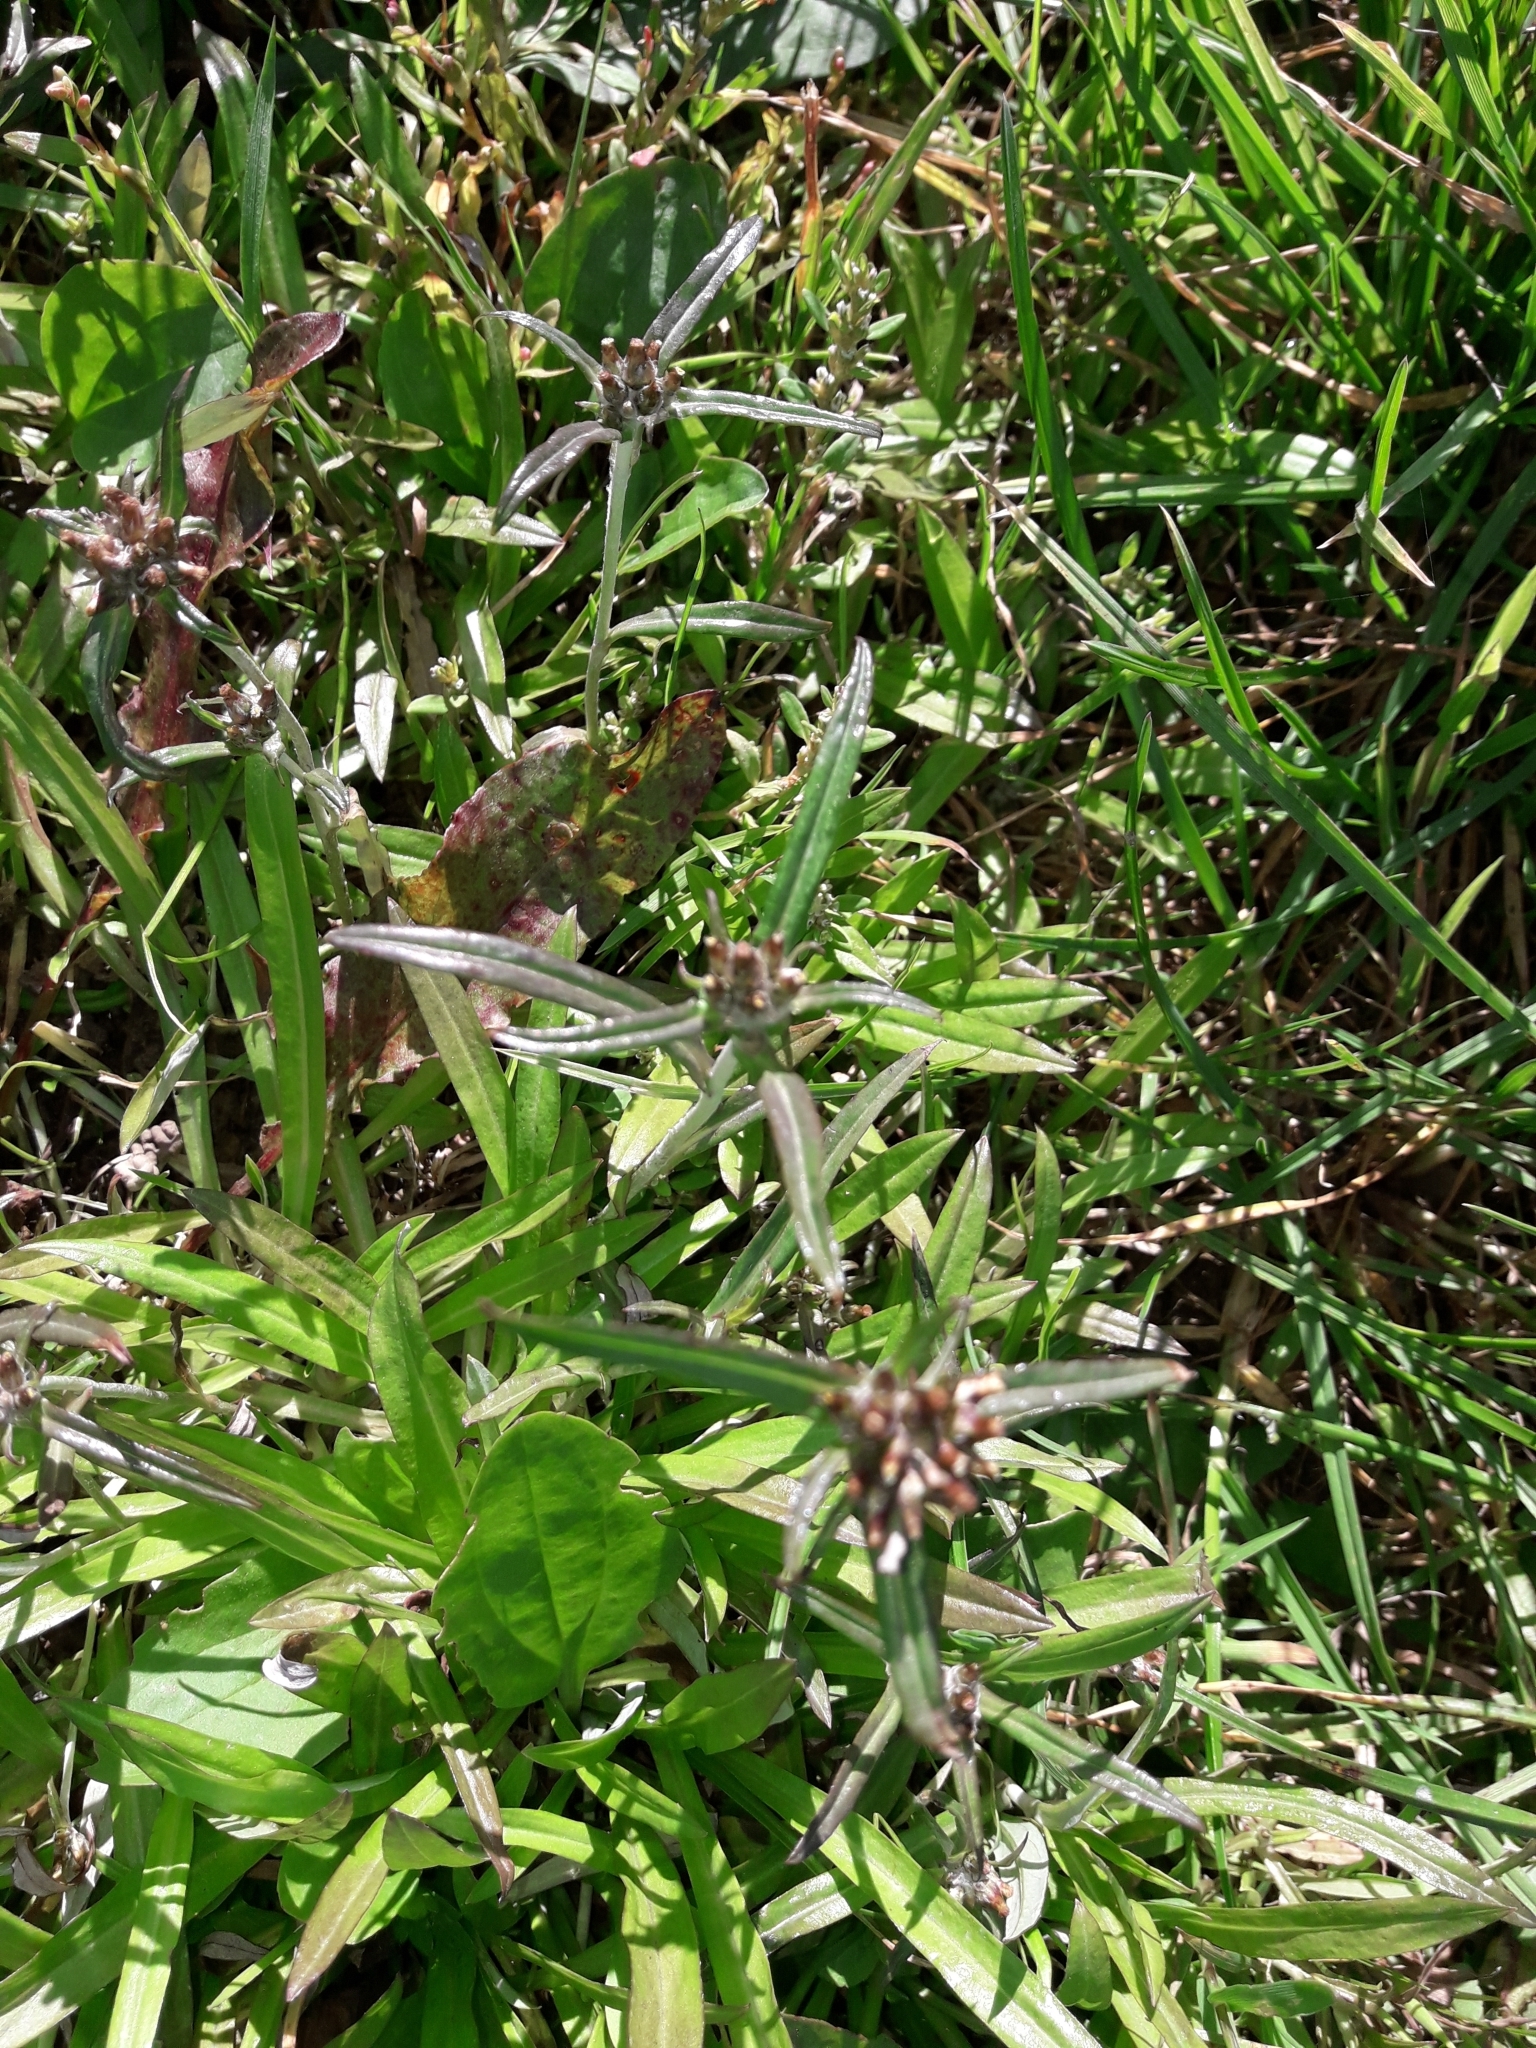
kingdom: Plantae
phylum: Tracheophyta
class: Magnoliopsida
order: Asterales
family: Asteraceae
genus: Euchiton
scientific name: Euchiton involucratus
